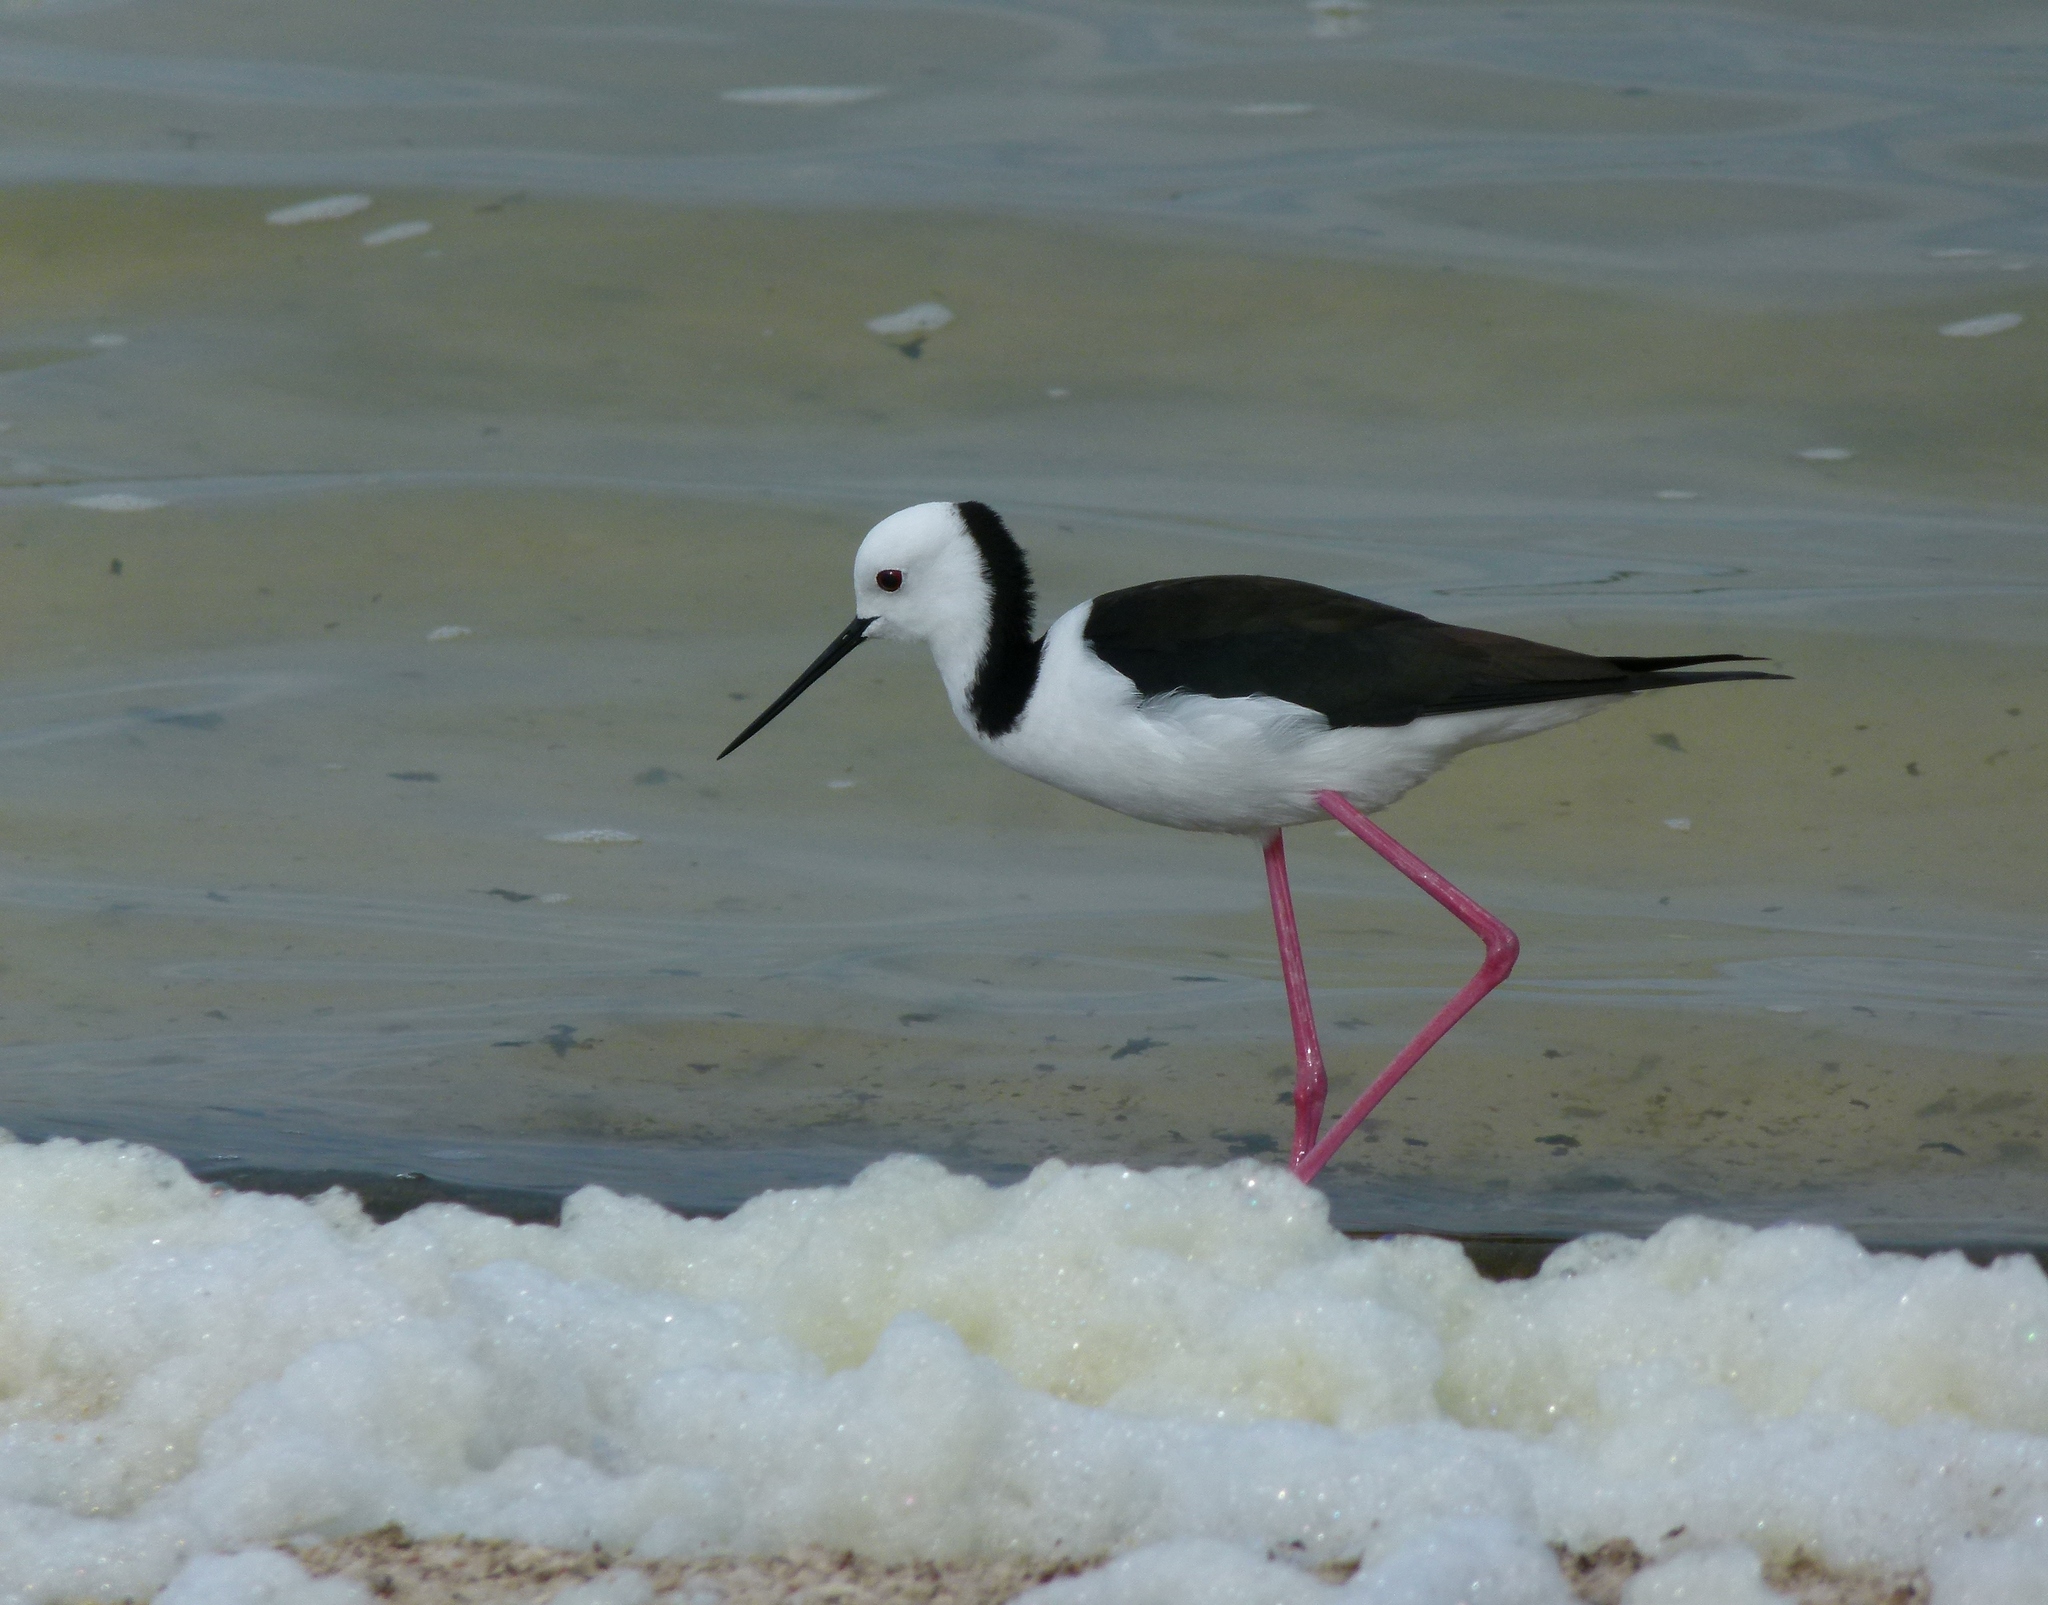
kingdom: Animalia
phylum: Chordata
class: Aves
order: Charadriiformes
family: Recurvirostridae
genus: Himantopus
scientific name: Himantopus leucocephalus
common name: White-headed stilt
